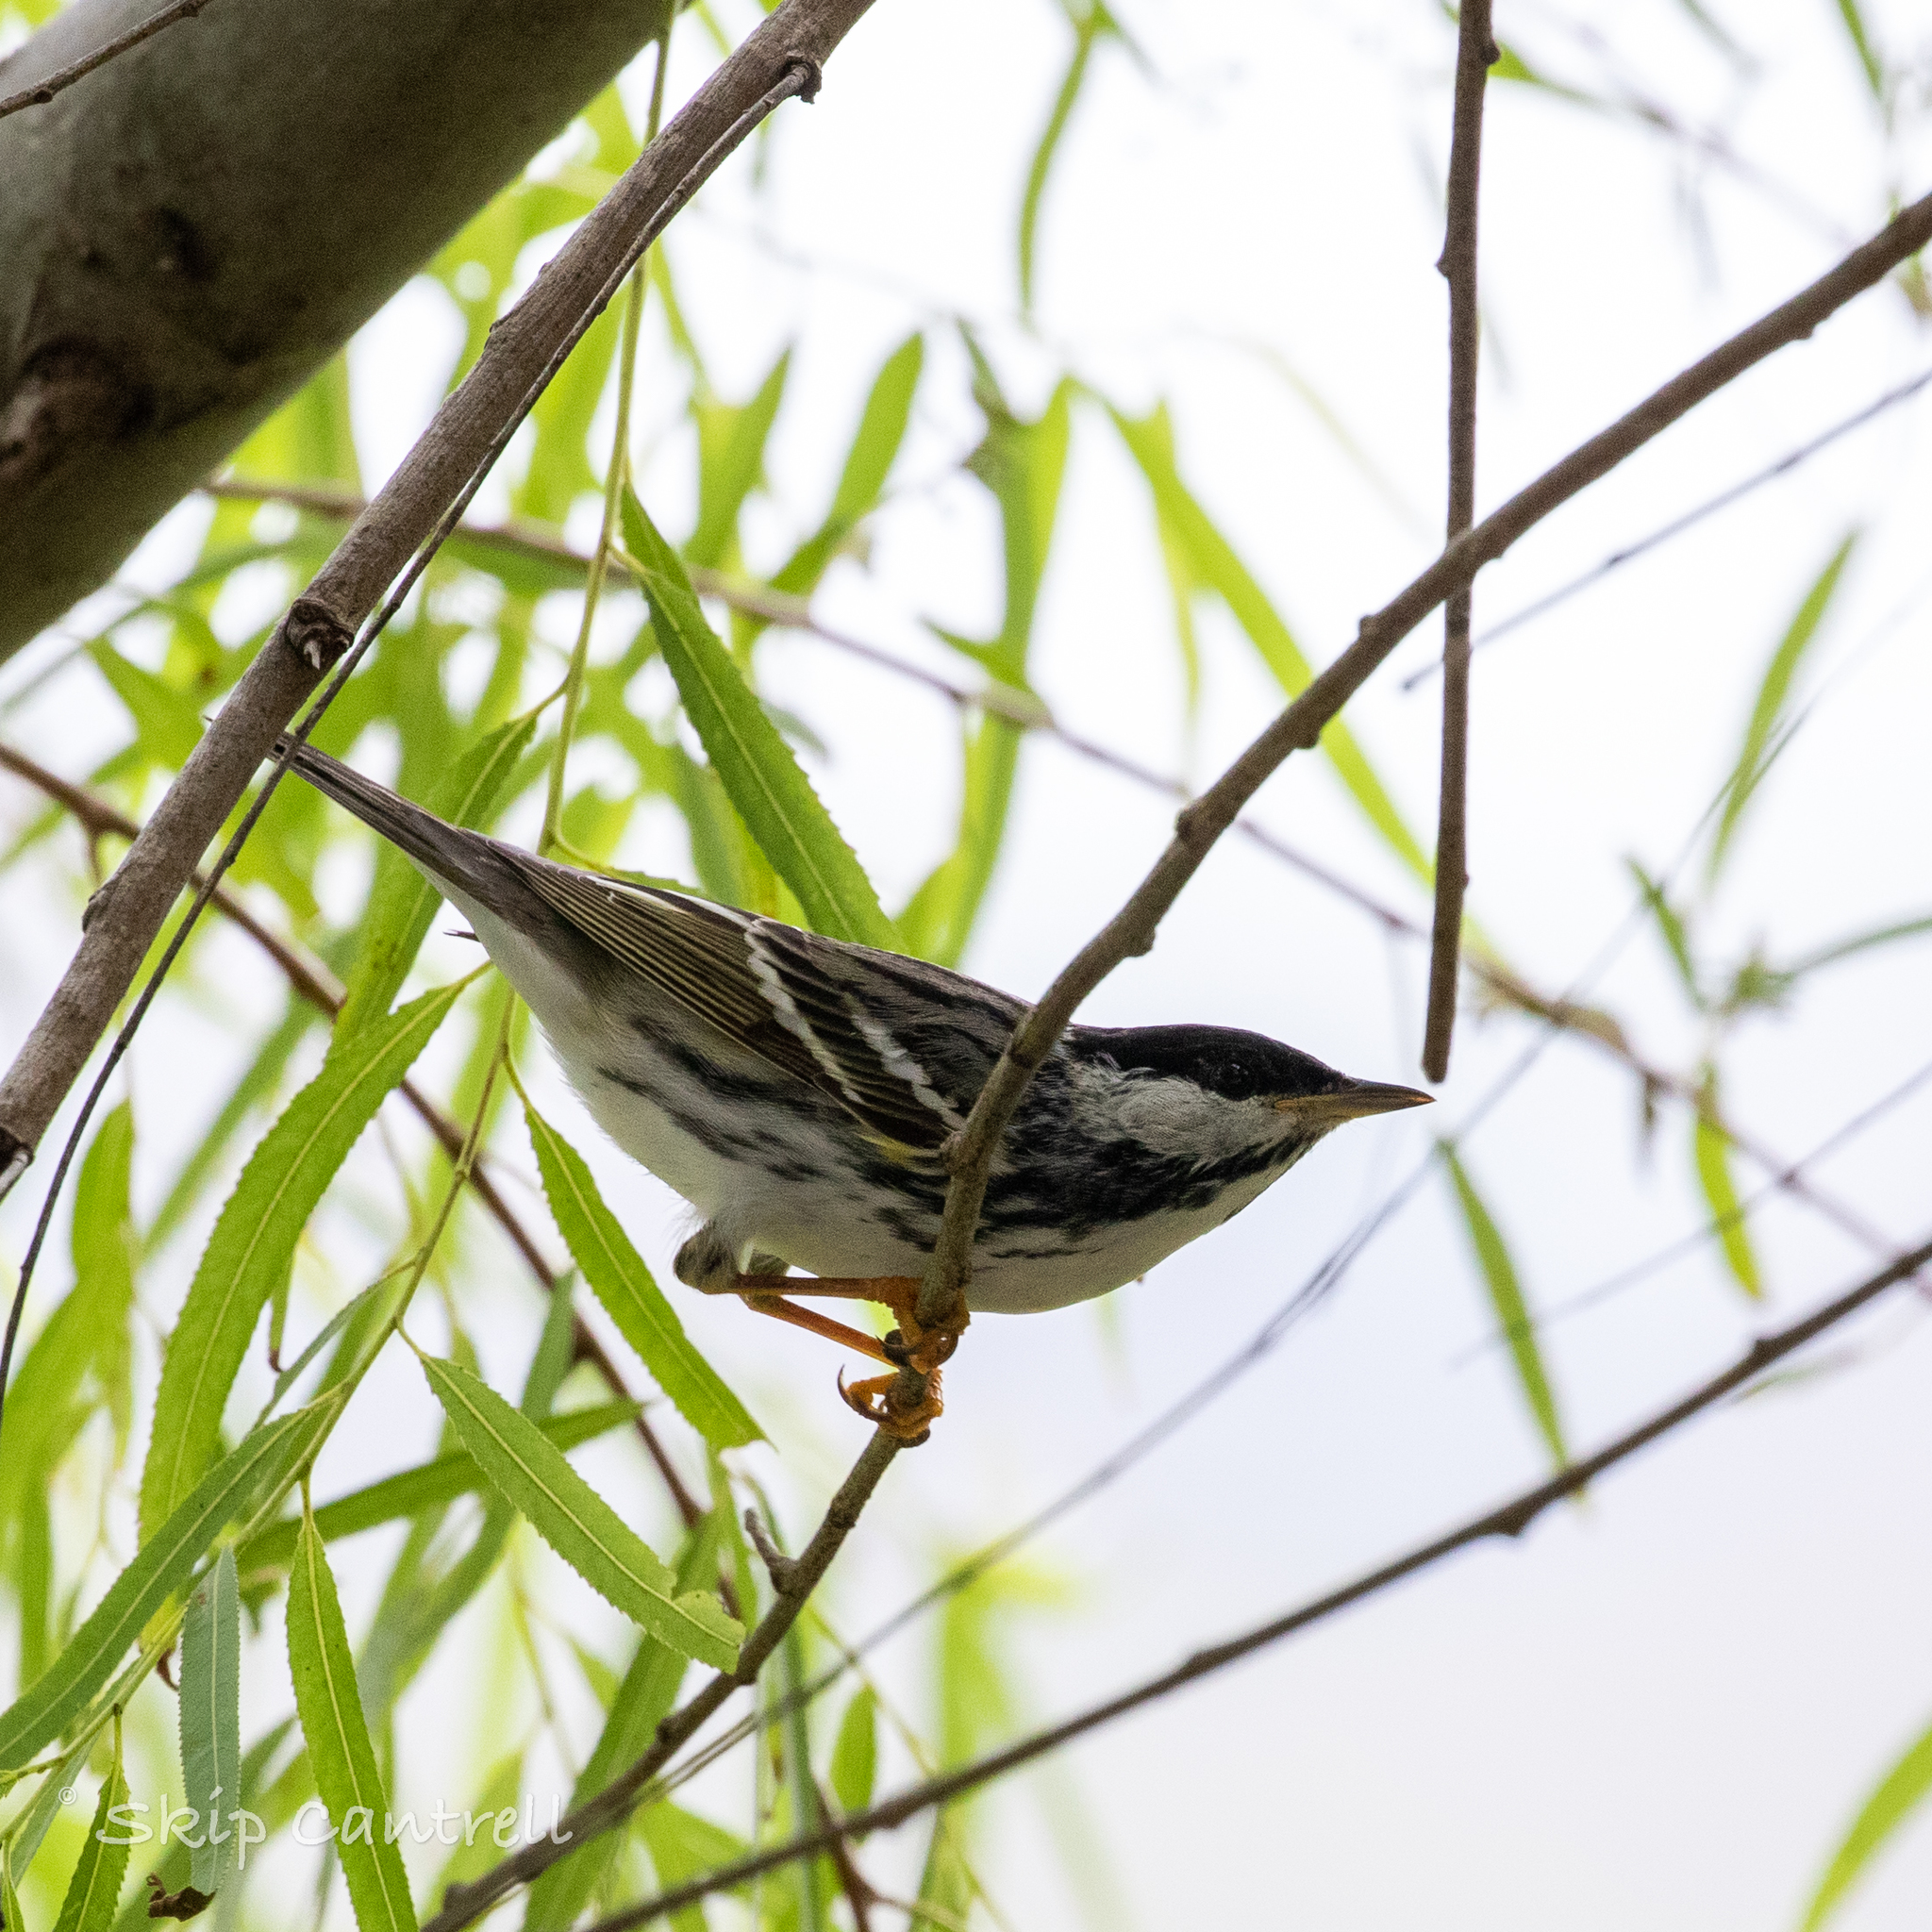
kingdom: Animalia
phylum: Chordata
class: Aves
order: Passeriformes
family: Parulidae
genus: Setophaga
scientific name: Setophaga striata
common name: Blackpoll warbler
